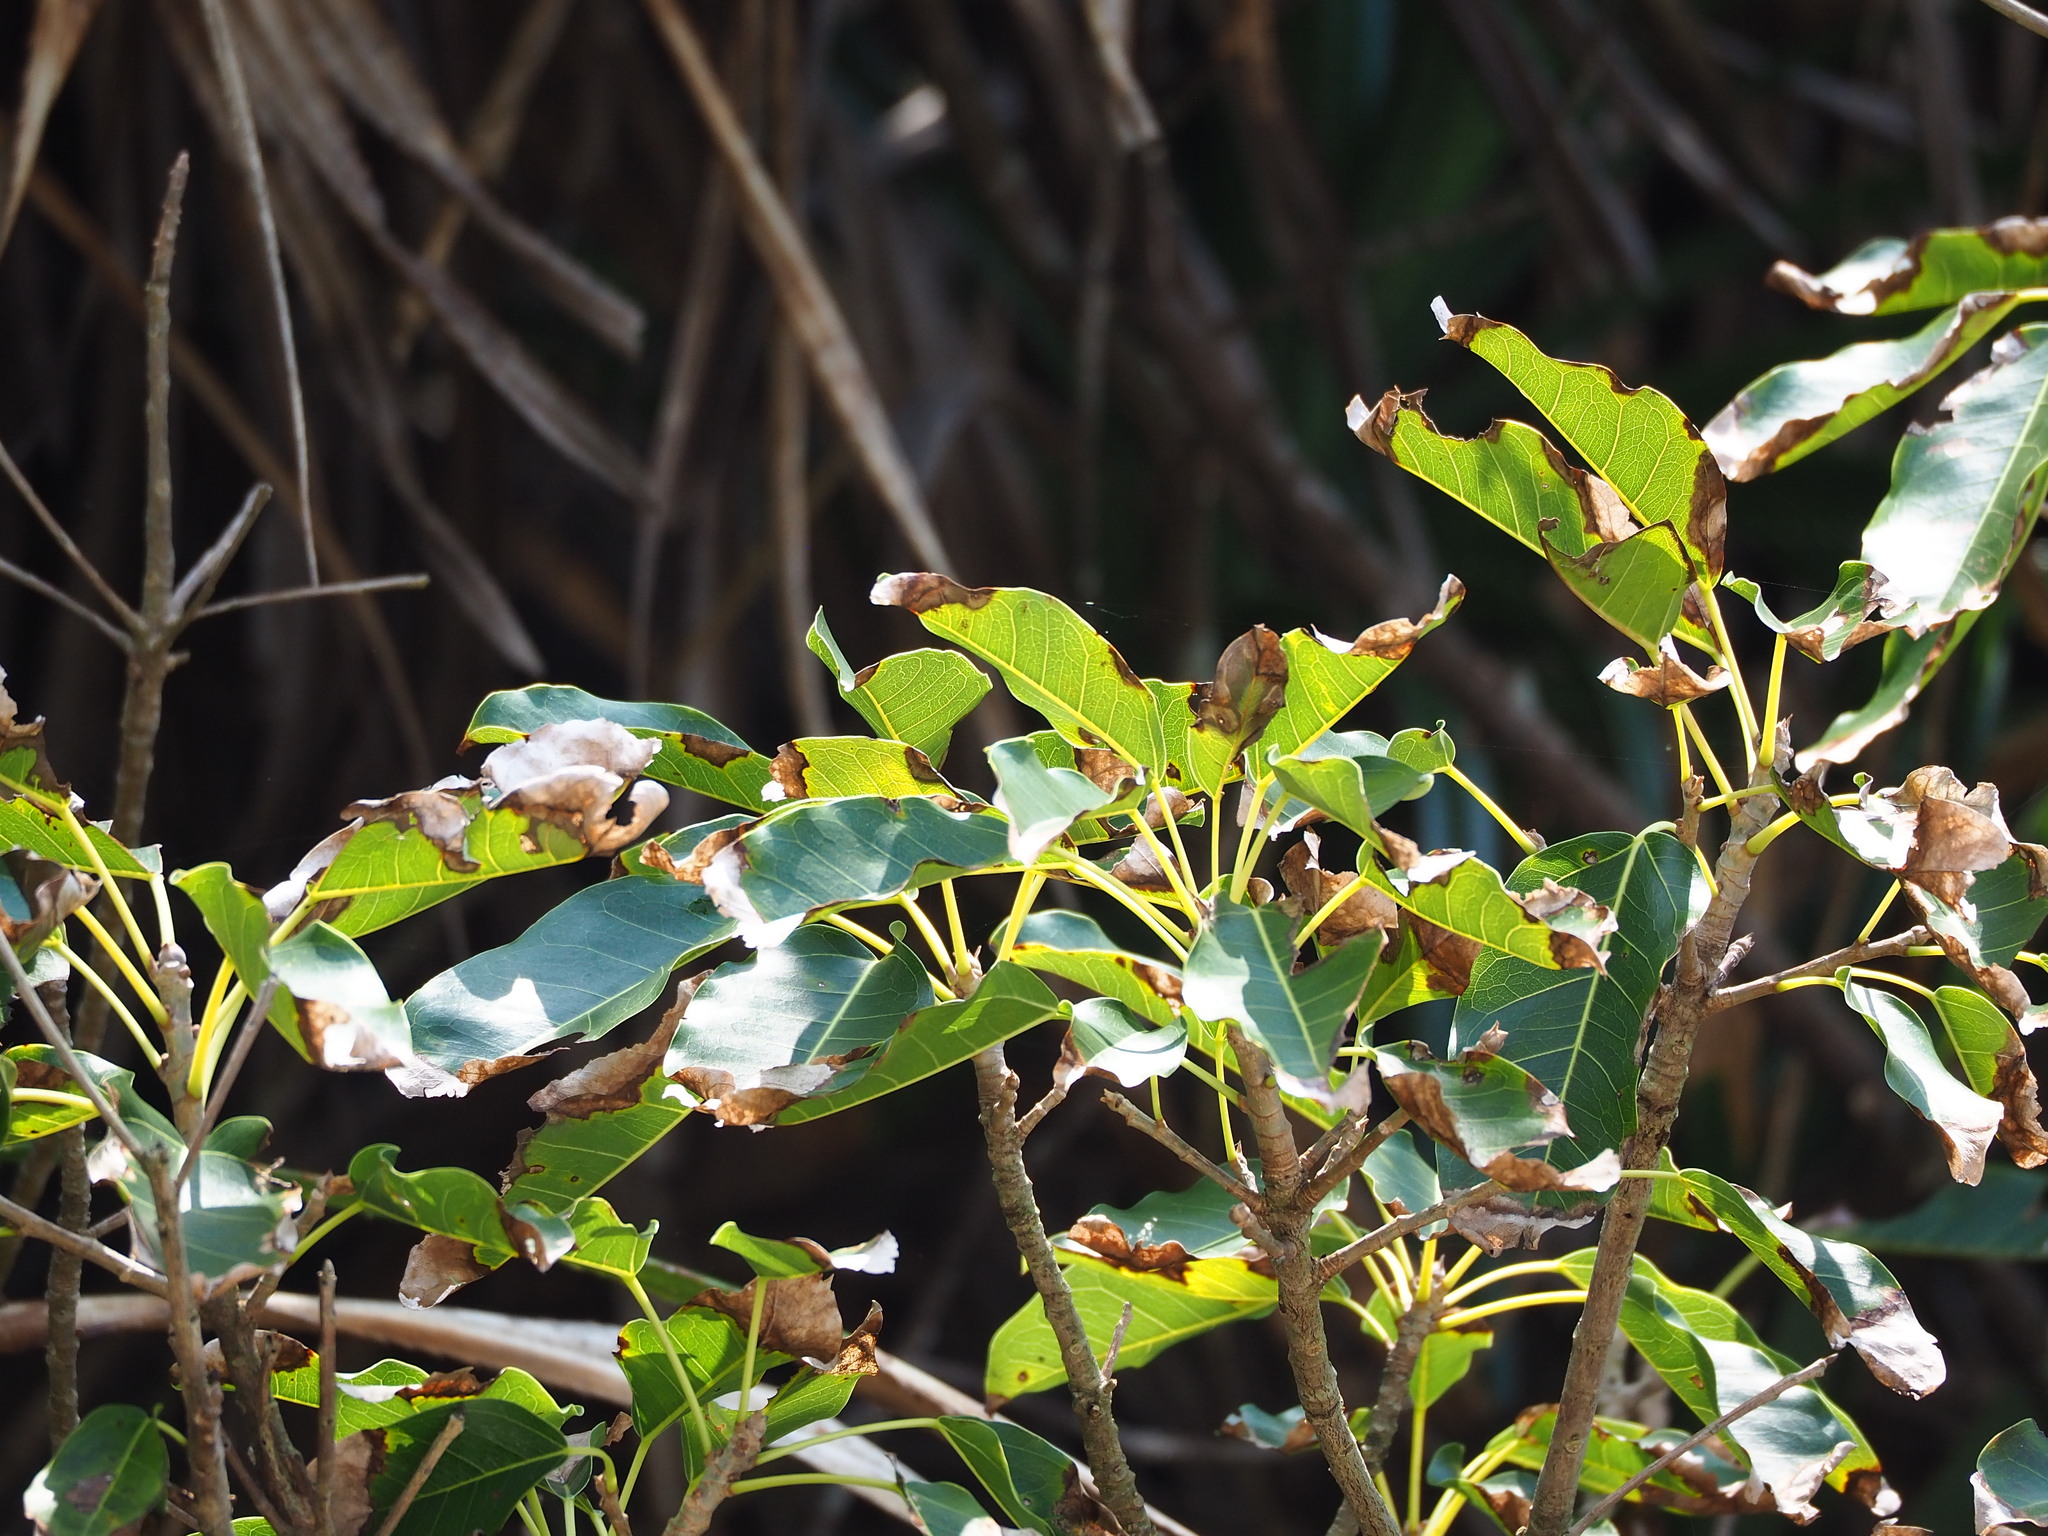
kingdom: Plantae
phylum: Tracheophyta
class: Magnoliopsida
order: Rosales
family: Moraceae
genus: Ficus
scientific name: Ficus subpisocarpa
